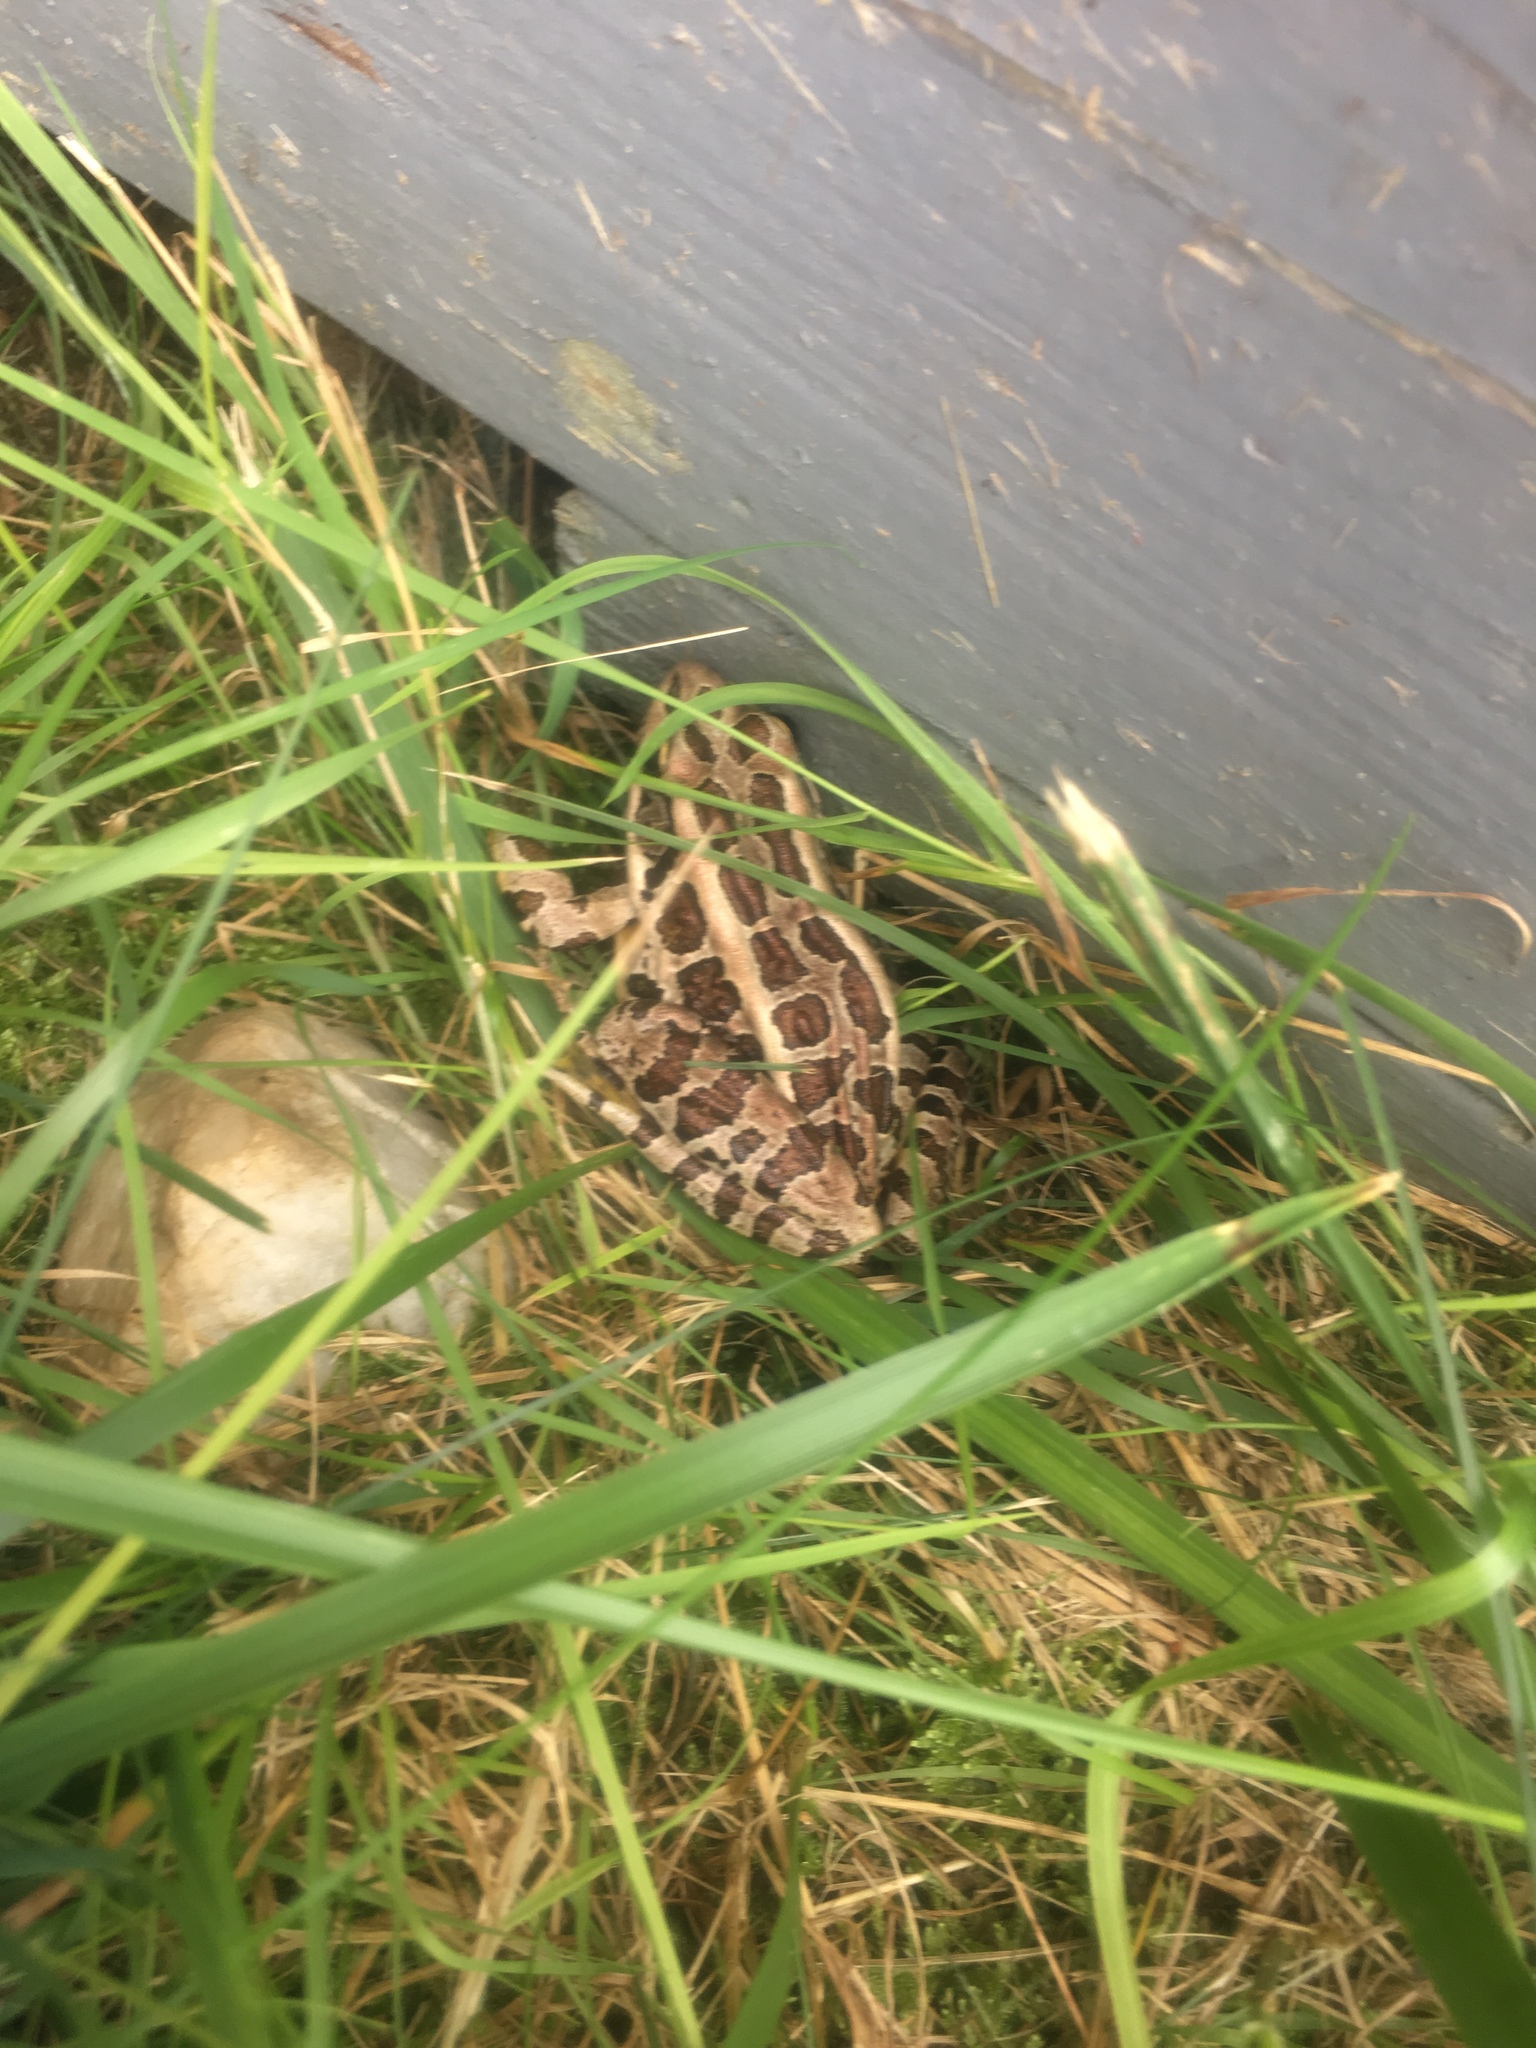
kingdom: Animalia
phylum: Chordata
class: Amphibia
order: Anura
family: Ranidae
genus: Lithobates
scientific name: Lithobates palustris
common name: Pickerel frog
